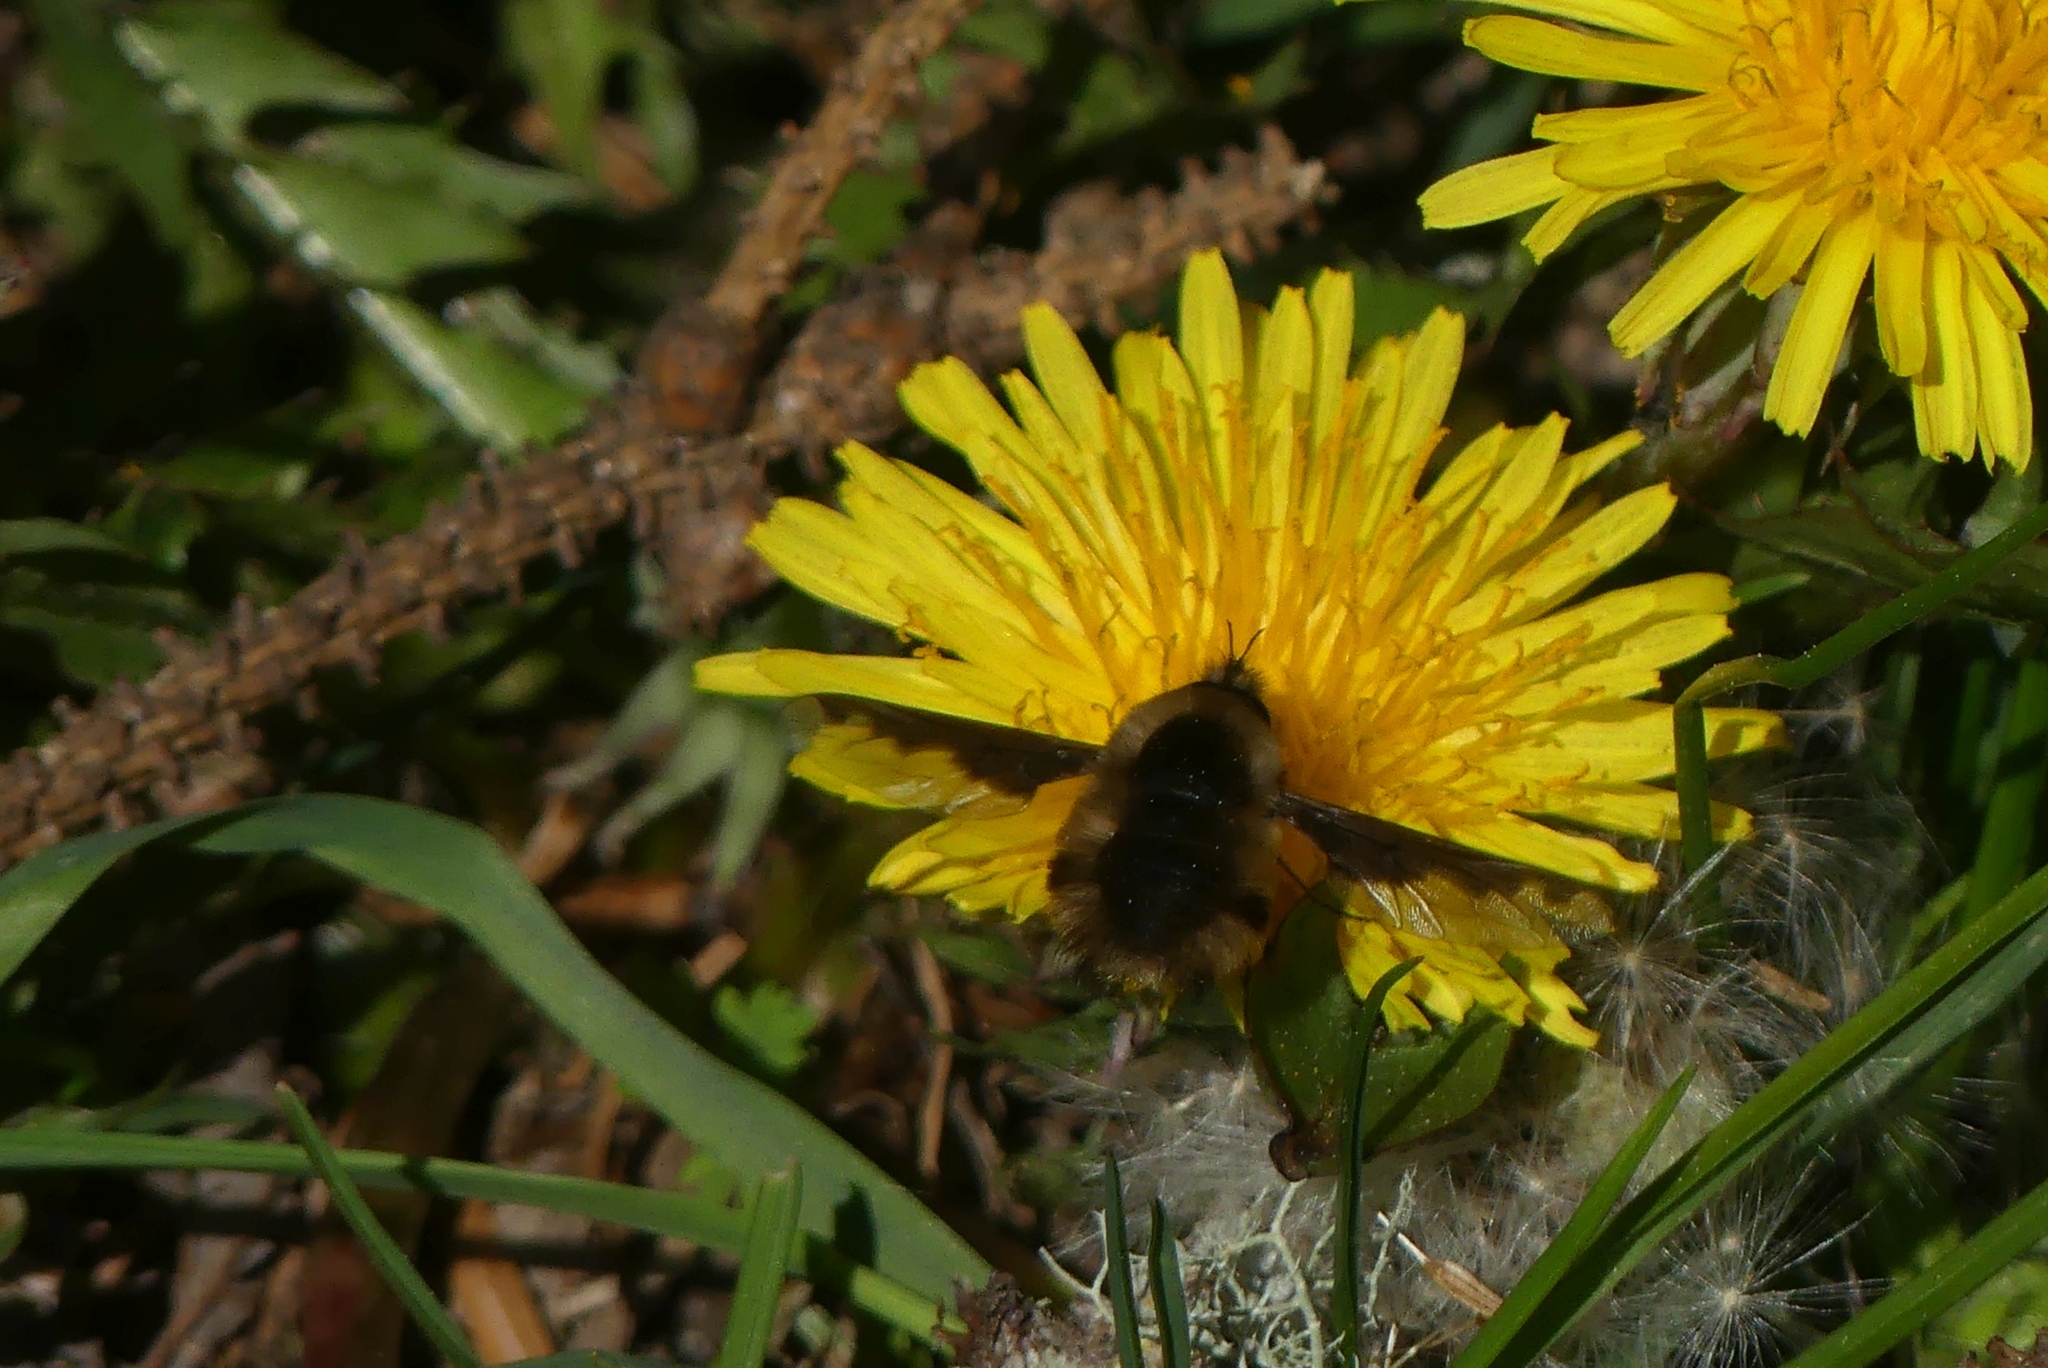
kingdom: Animalia
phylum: Arthropoda
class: Insecta
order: Diptera
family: Bombyliidae
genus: Bombylius
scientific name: Bombylius major
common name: Bee fly
